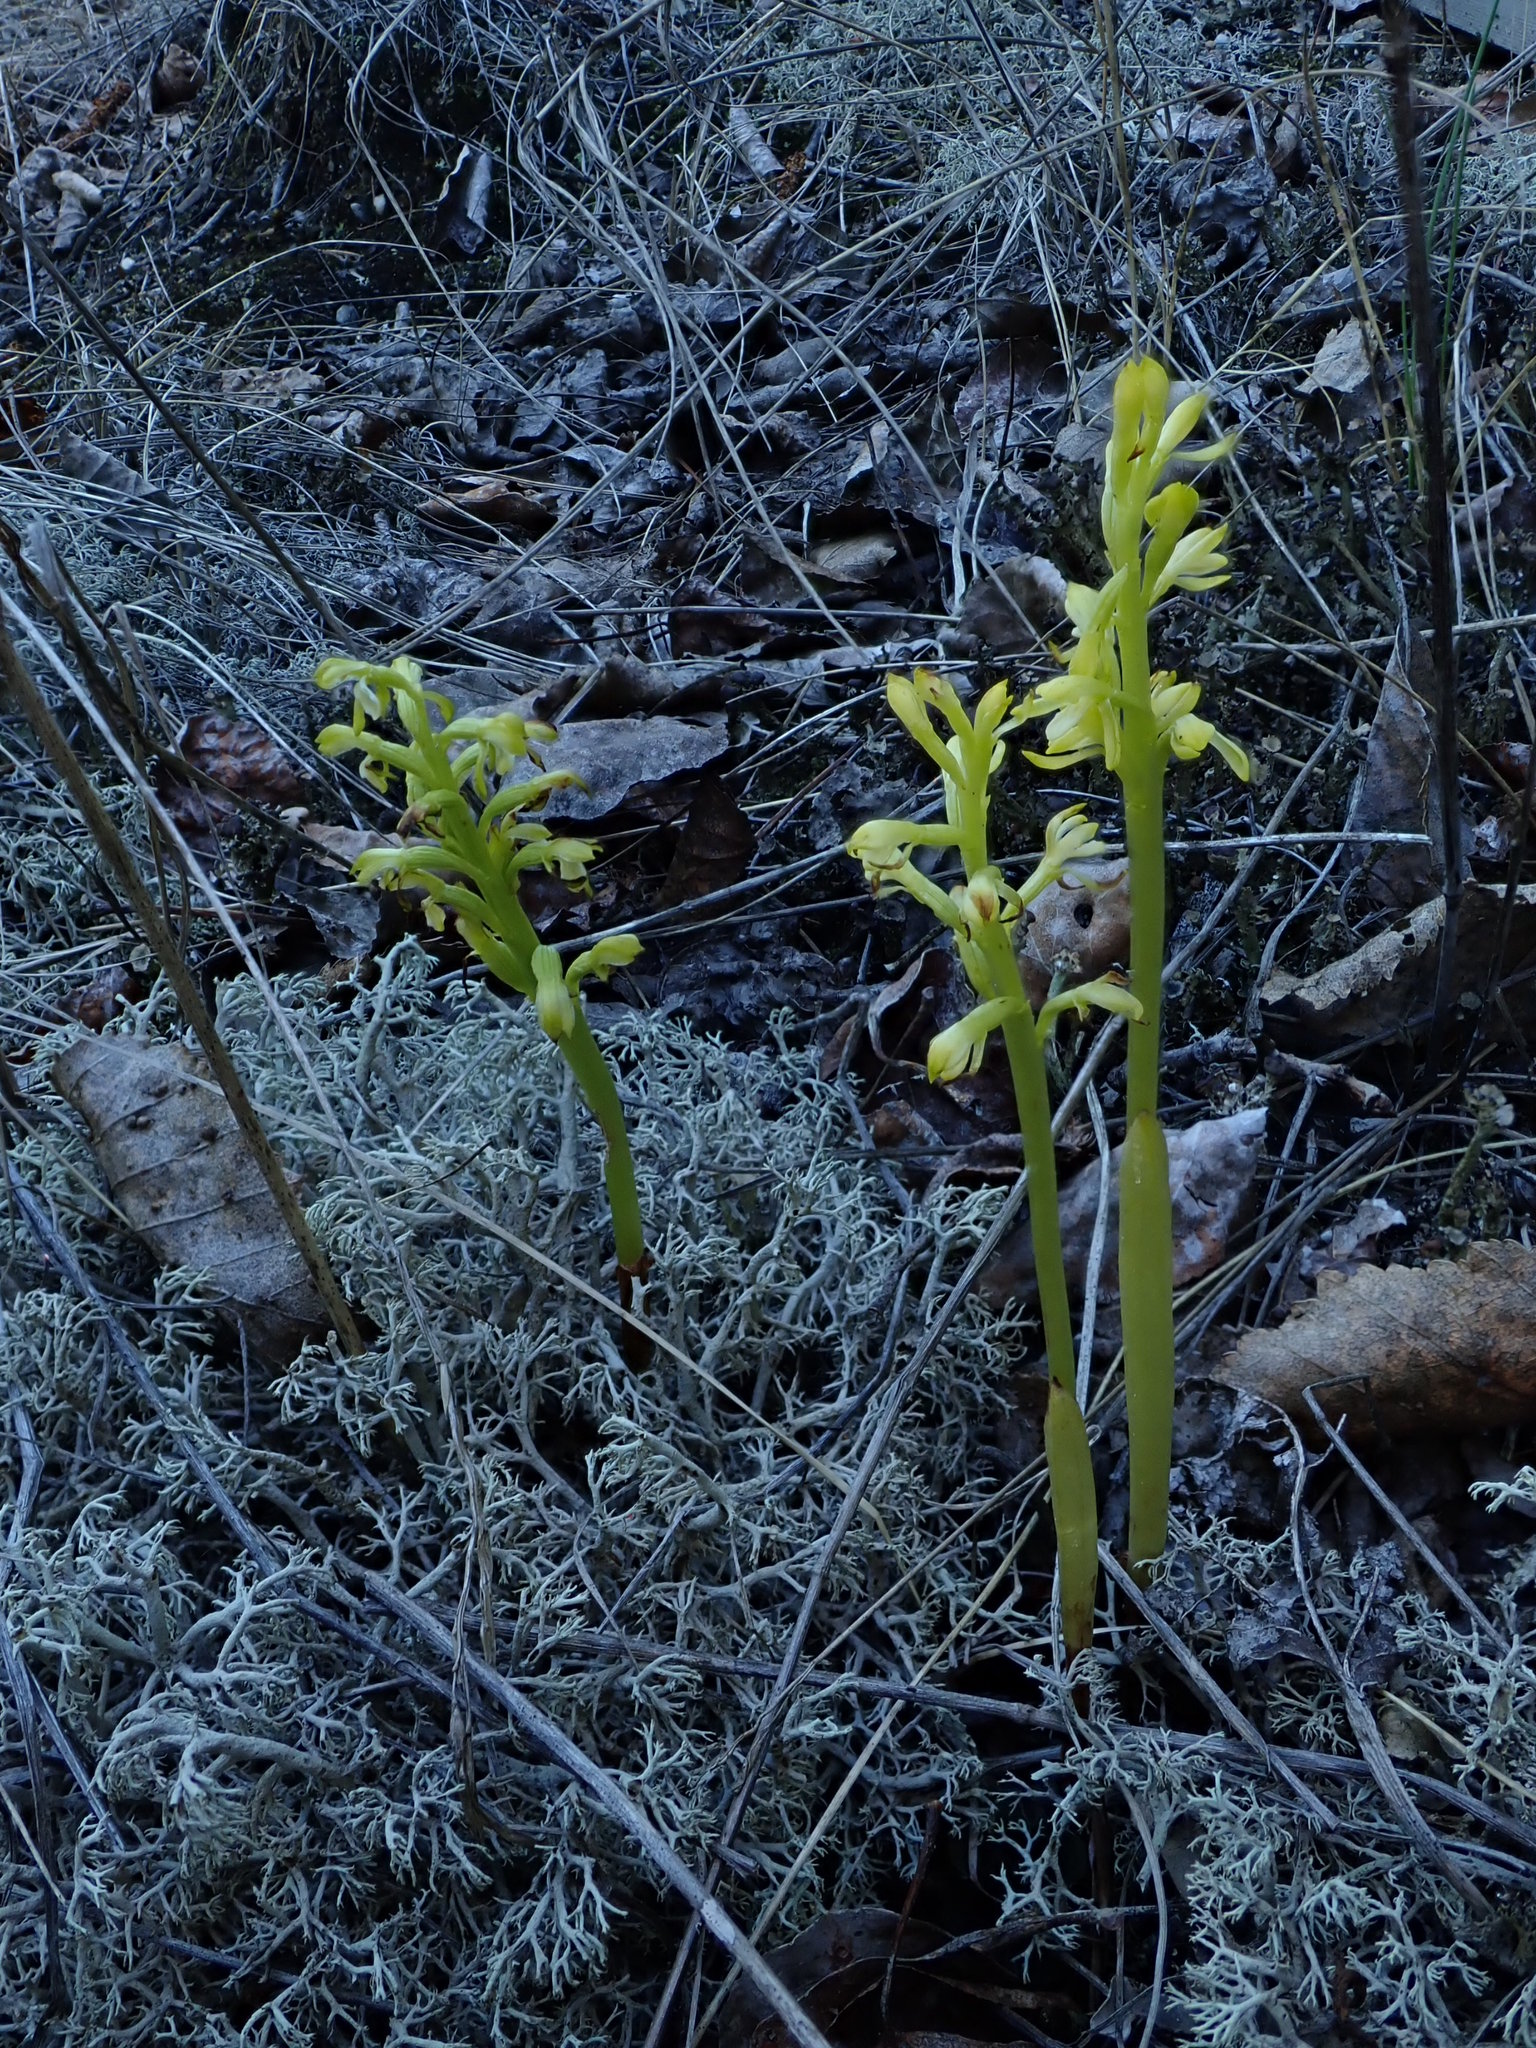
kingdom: Plantae
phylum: Tracheophyta
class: Liliopsida
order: Asparagales
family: Orchidaceae
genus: Corallorhiza
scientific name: Corallorhiza trifida
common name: Yellow coralroot
